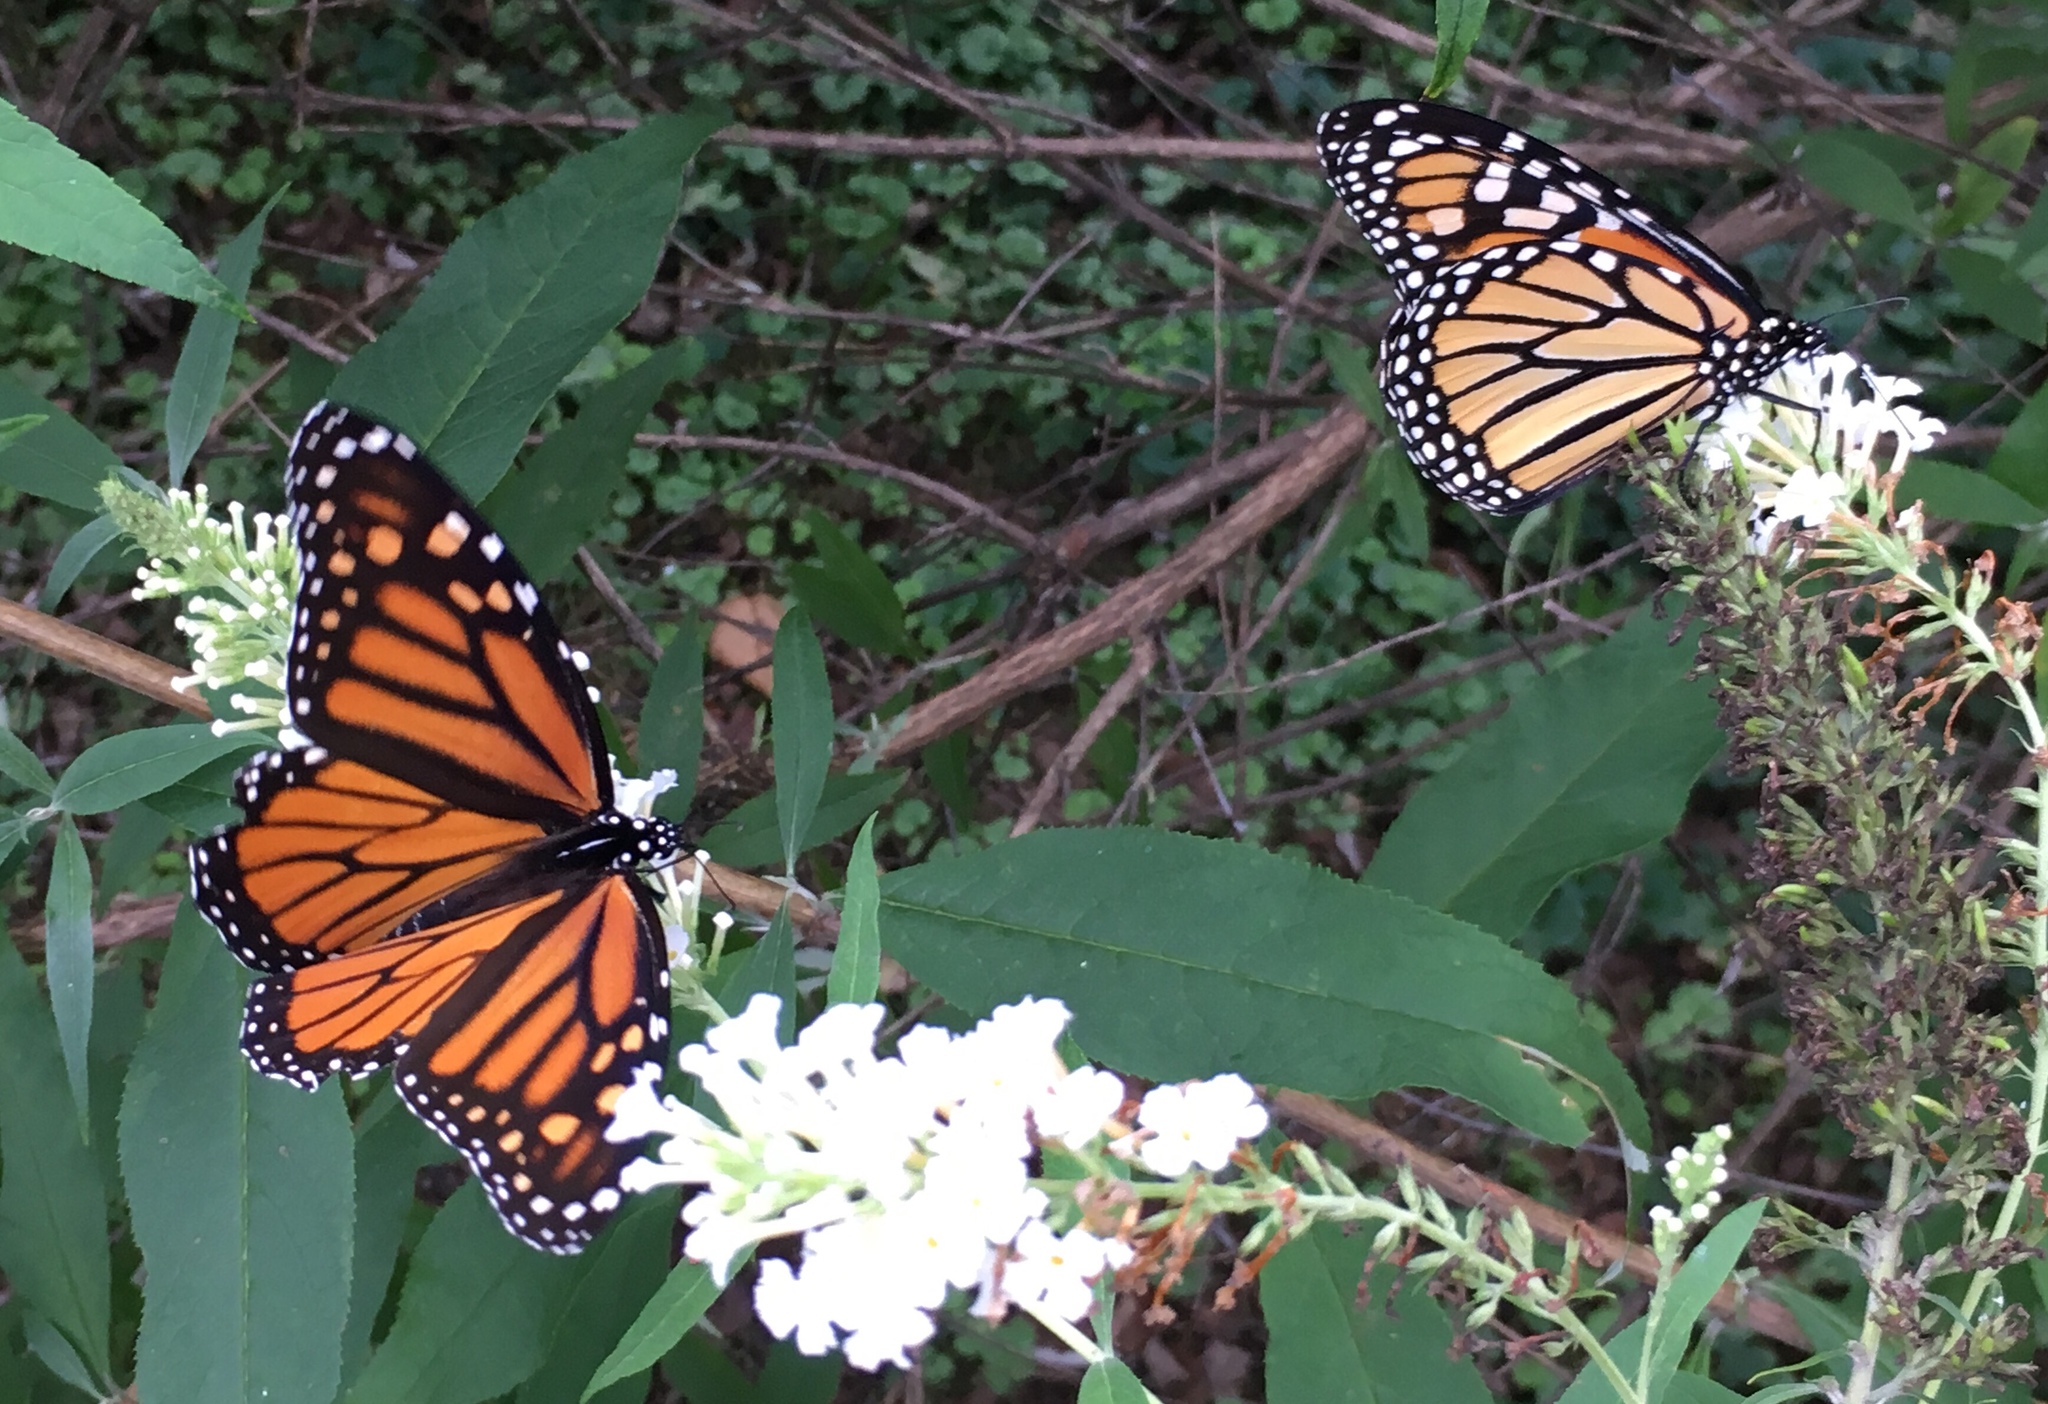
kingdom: Animalia
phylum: Arthropoda
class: Insecta
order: Lepidoptera
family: Nymphalidae
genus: Danaus
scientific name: Danaus plexippus
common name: Monarch
